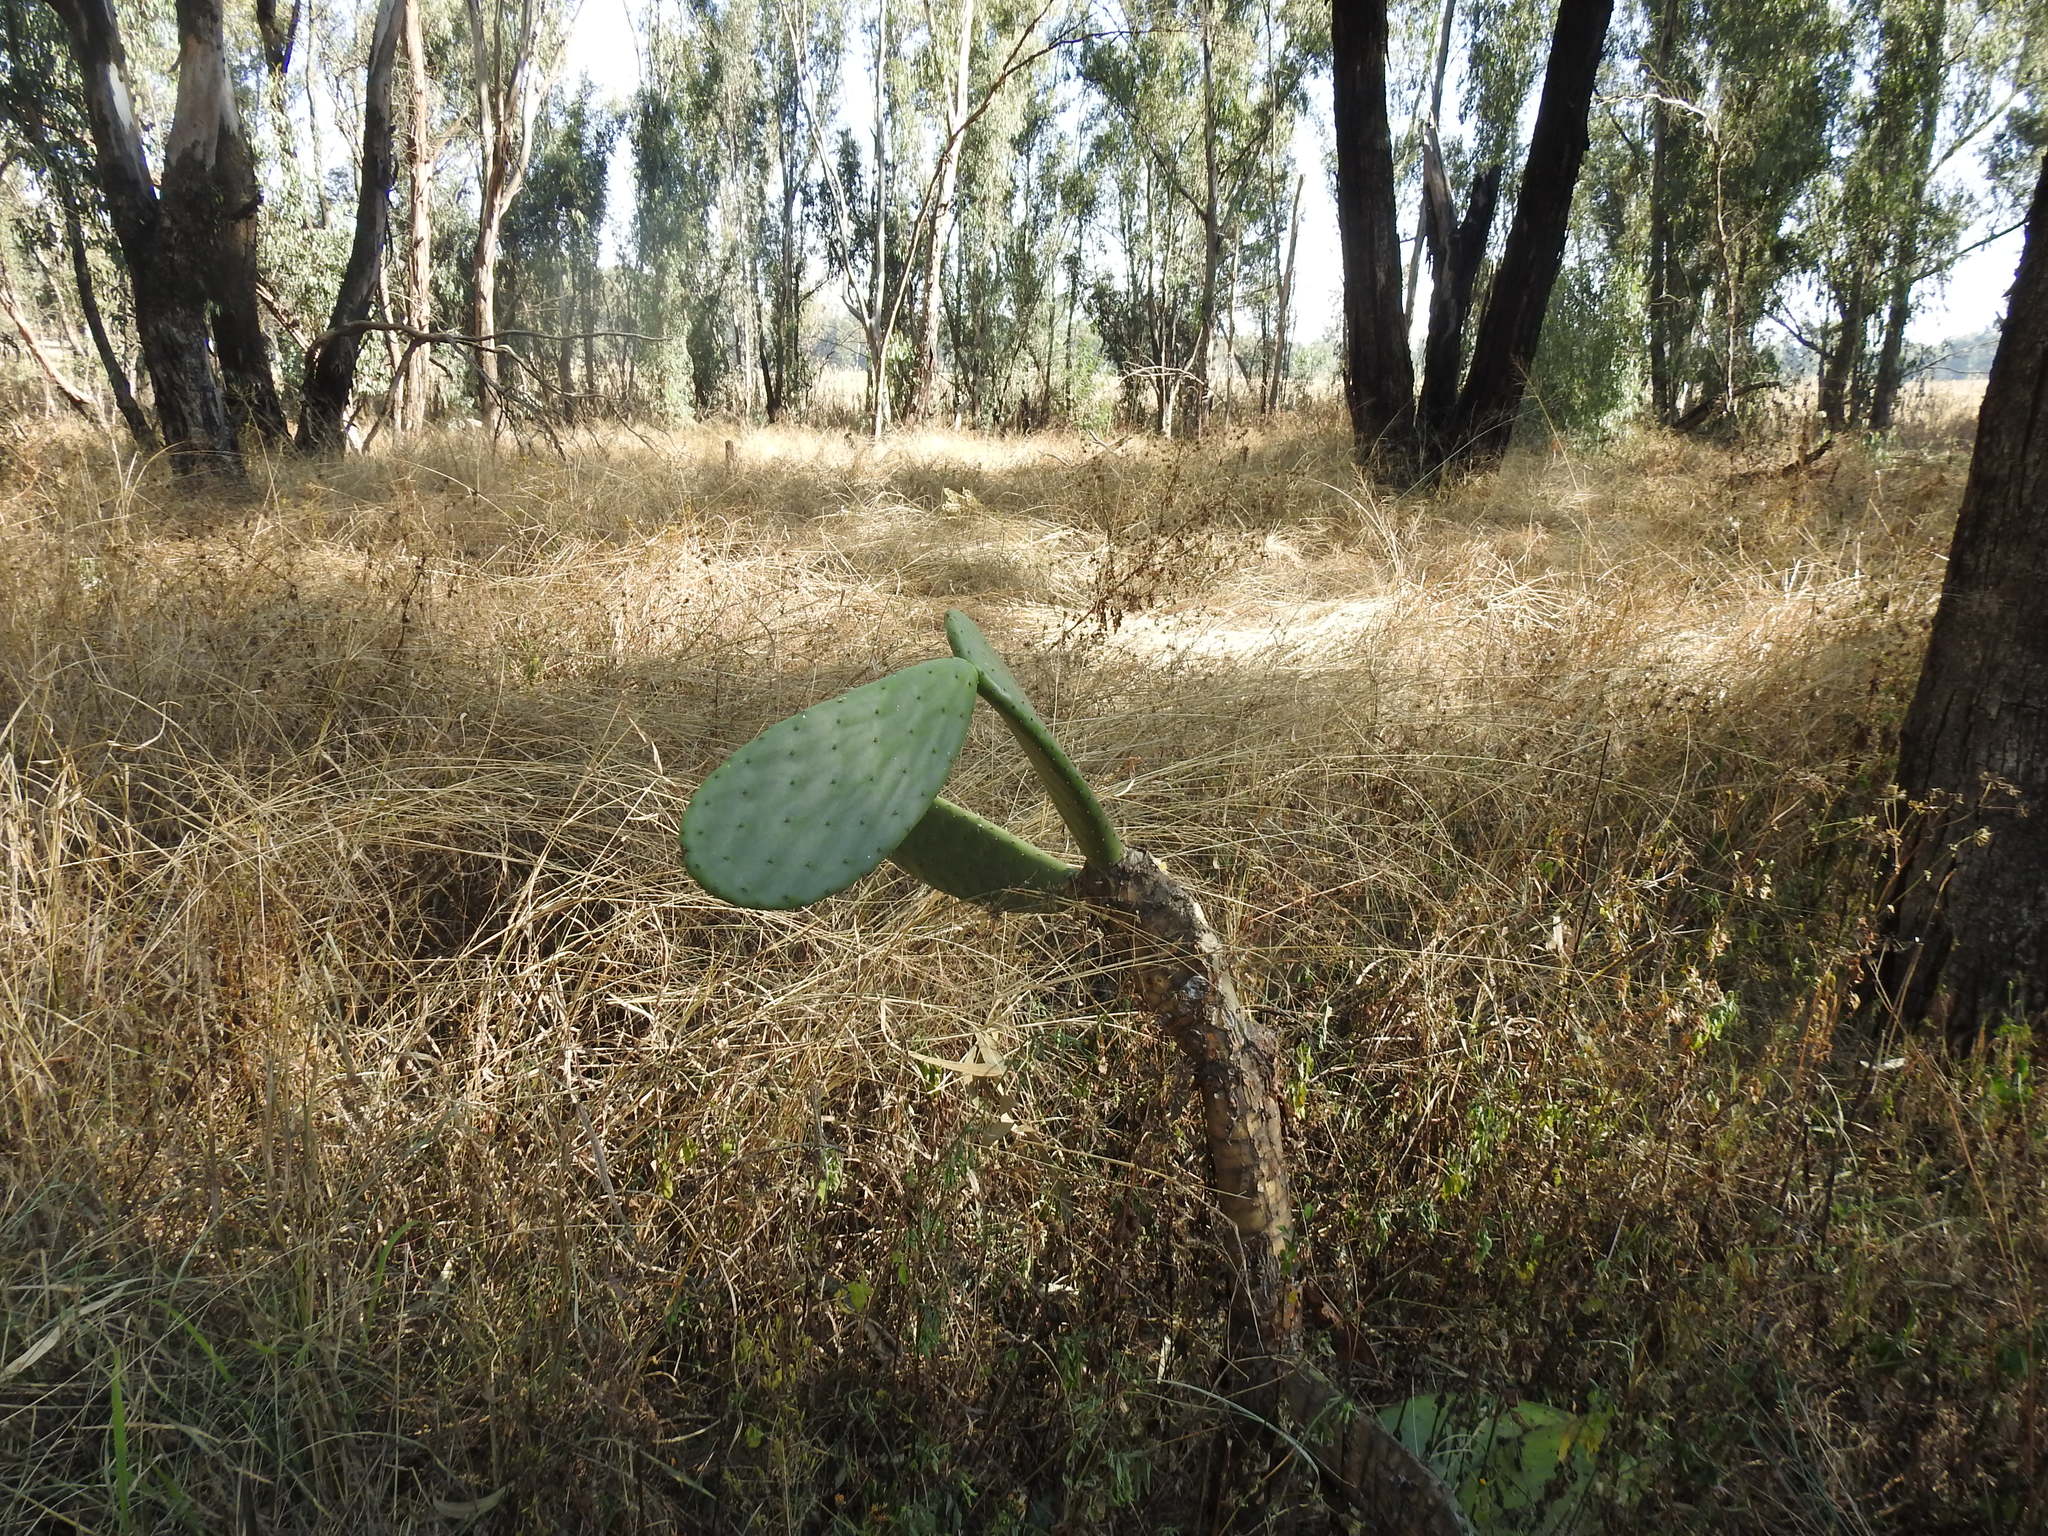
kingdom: Plantae
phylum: Tracheophyta
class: Magnoliopsida
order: Caryophyllales
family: Cactaceae
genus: Opuntia
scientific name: Opuntia ficus-indica
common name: Barbary fig
